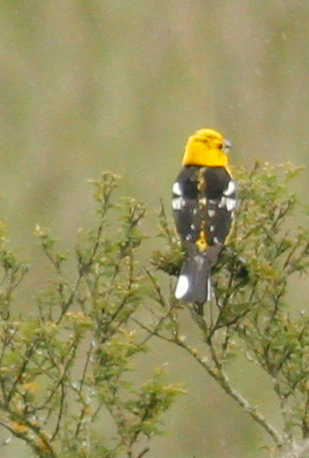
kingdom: Animalia
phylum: Chordata
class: Aves
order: Passeriformes
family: Cardinalidae
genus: Pheucticus
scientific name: Pheucticus chrysogaster
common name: Golden grosbeak
